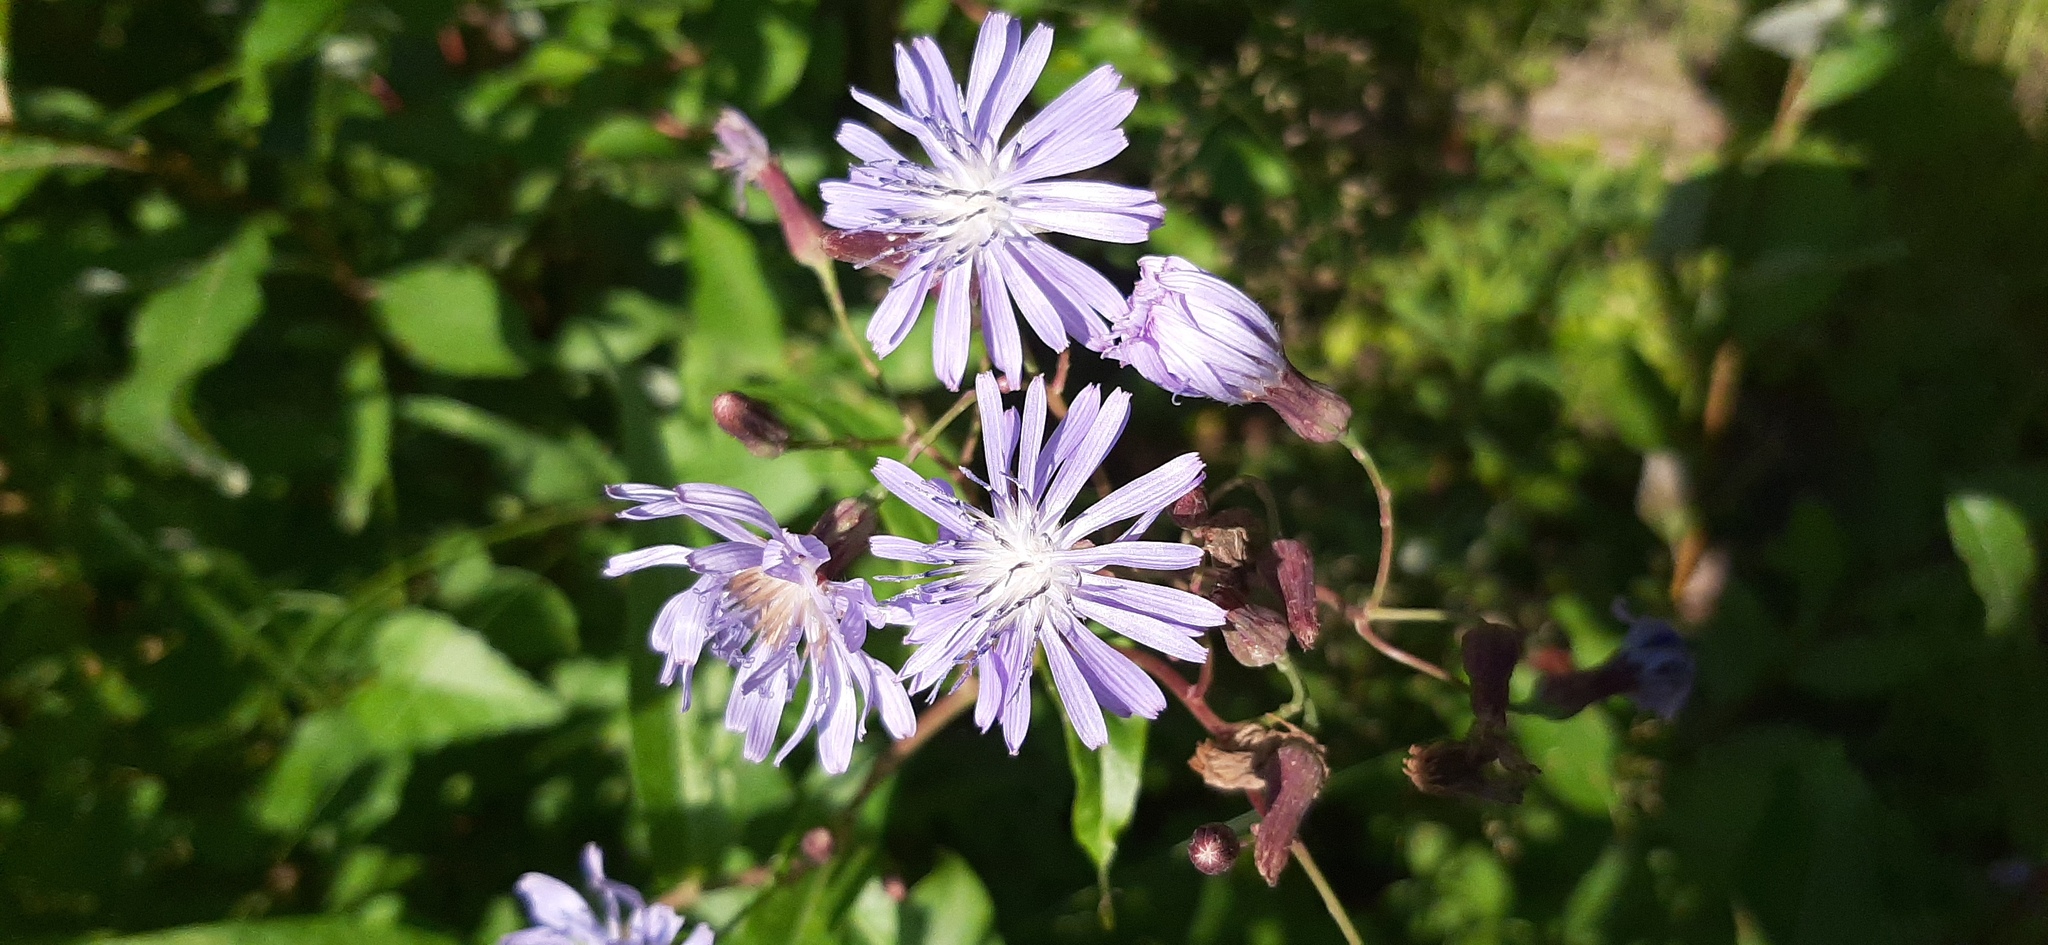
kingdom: Plantae
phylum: Tracheophyta
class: Magnoliopsida
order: Asterales
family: Asteraceae
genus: Lactuca
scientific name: Lactuca sibirica
